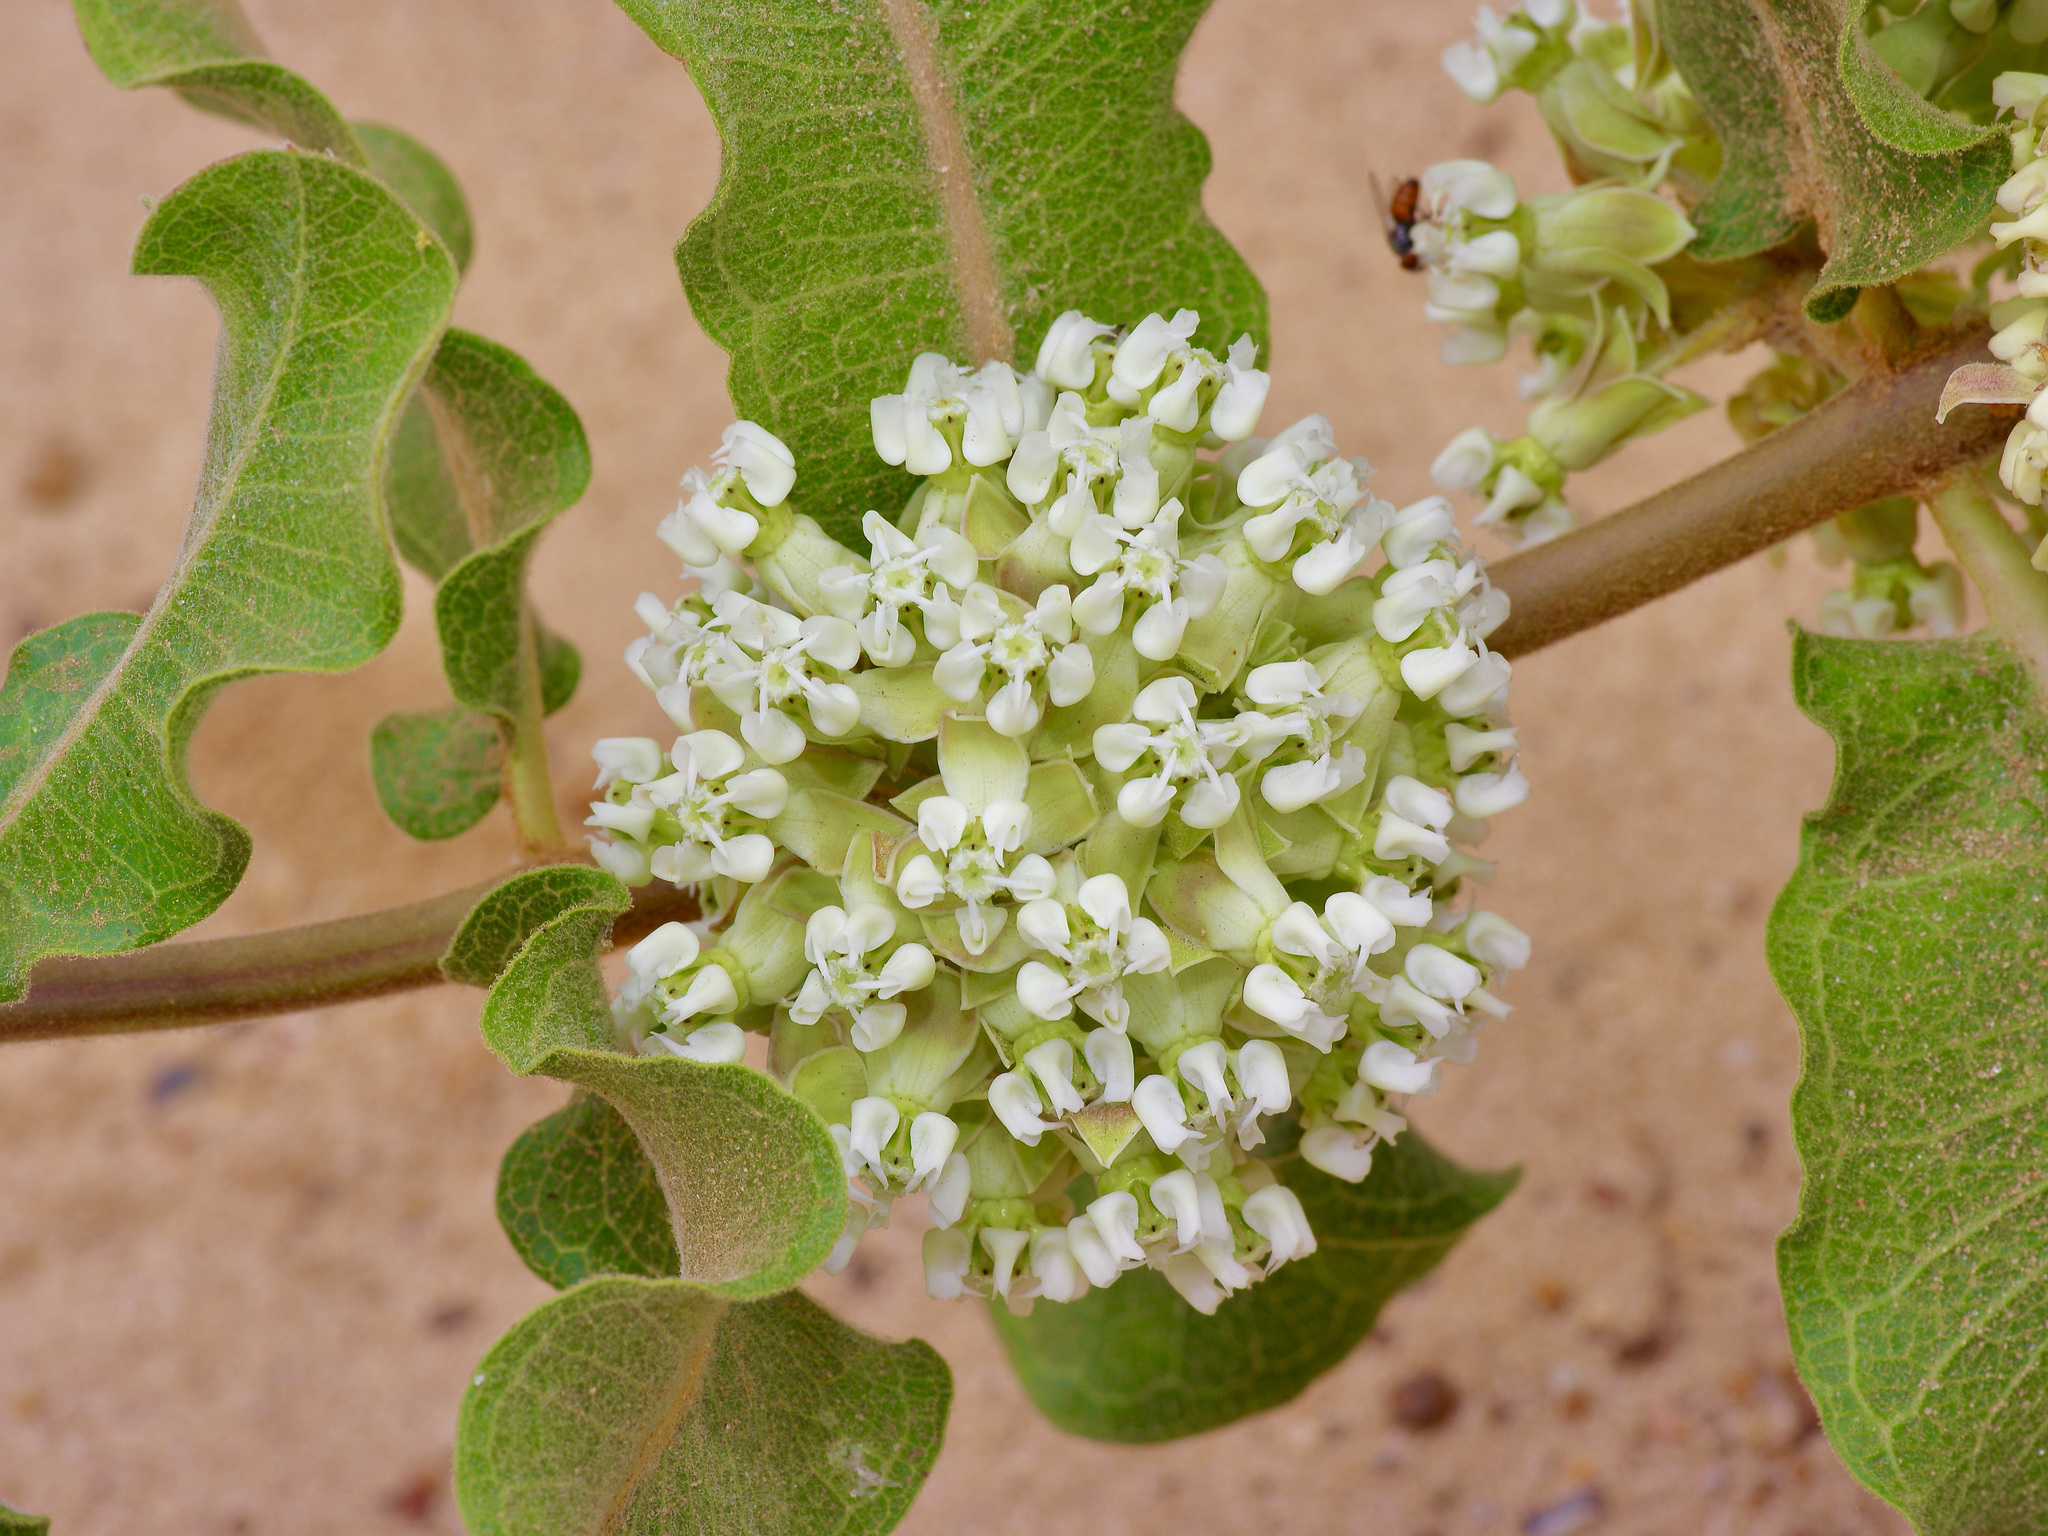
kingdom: Plantae
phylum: Tracheophyta
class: Magnoliopsida
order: Gentianales
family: Apocynaceae
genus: Asclepias
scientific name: Asclepias arenaria
